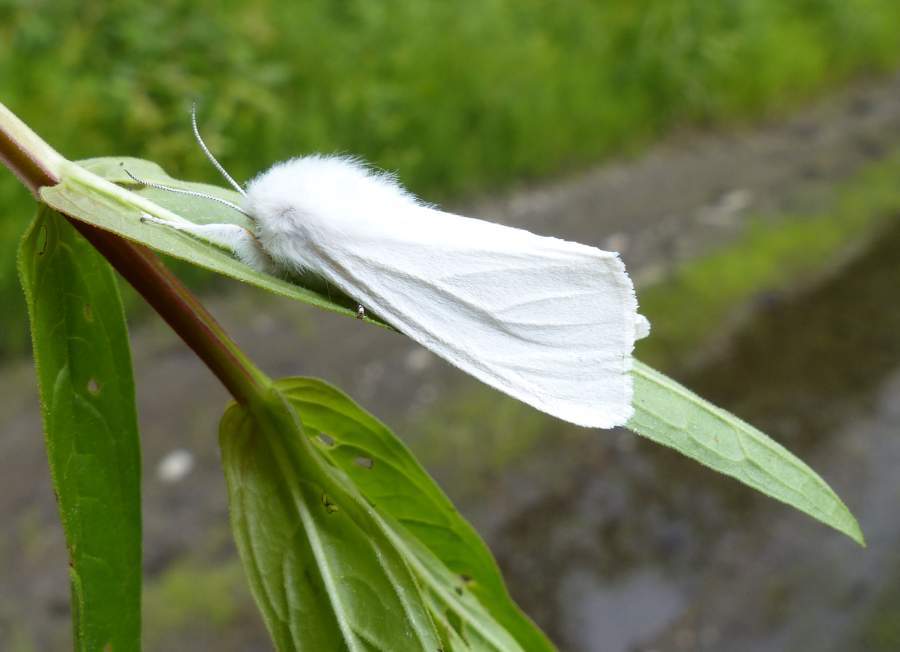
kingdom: Animalia
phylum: Arthropoda
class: Insecta
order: Lepidoptera
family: Erebidae
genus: Spilosoma
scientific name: Spilosoma congrua
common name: Agreeable tiger moth
